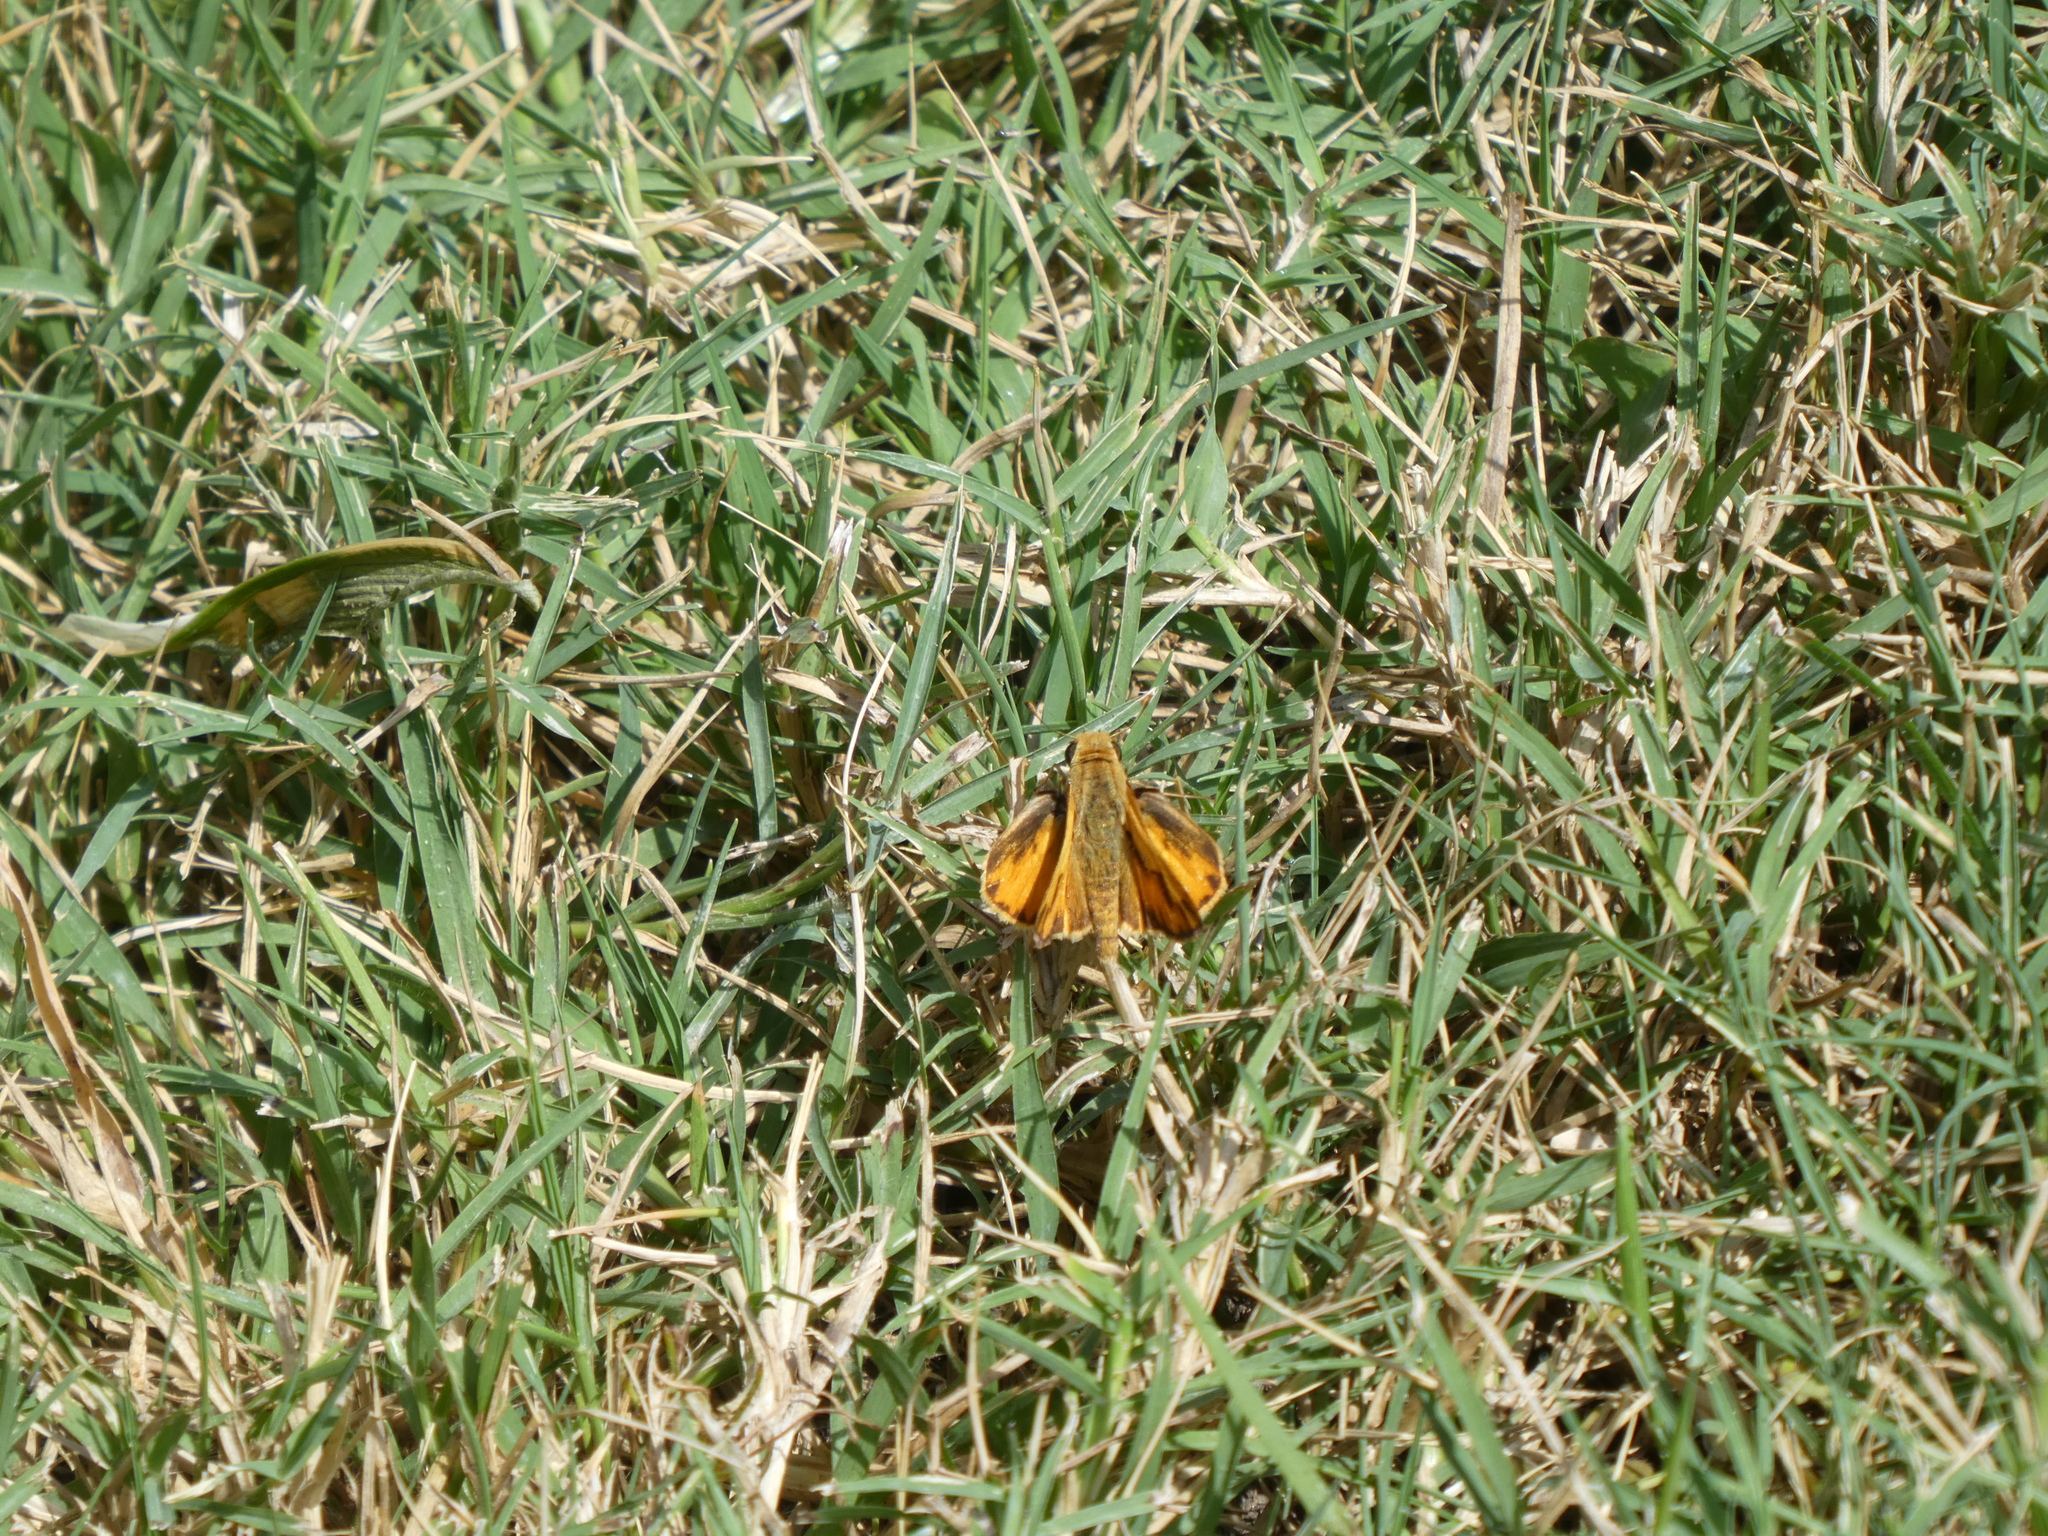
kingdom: Animalia
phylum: Arthropoda
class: Insecta
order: Lepidoptera
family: Hesperiidae
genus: Hylephila
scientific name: Hylephila phyleus
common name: Fiery skipper
